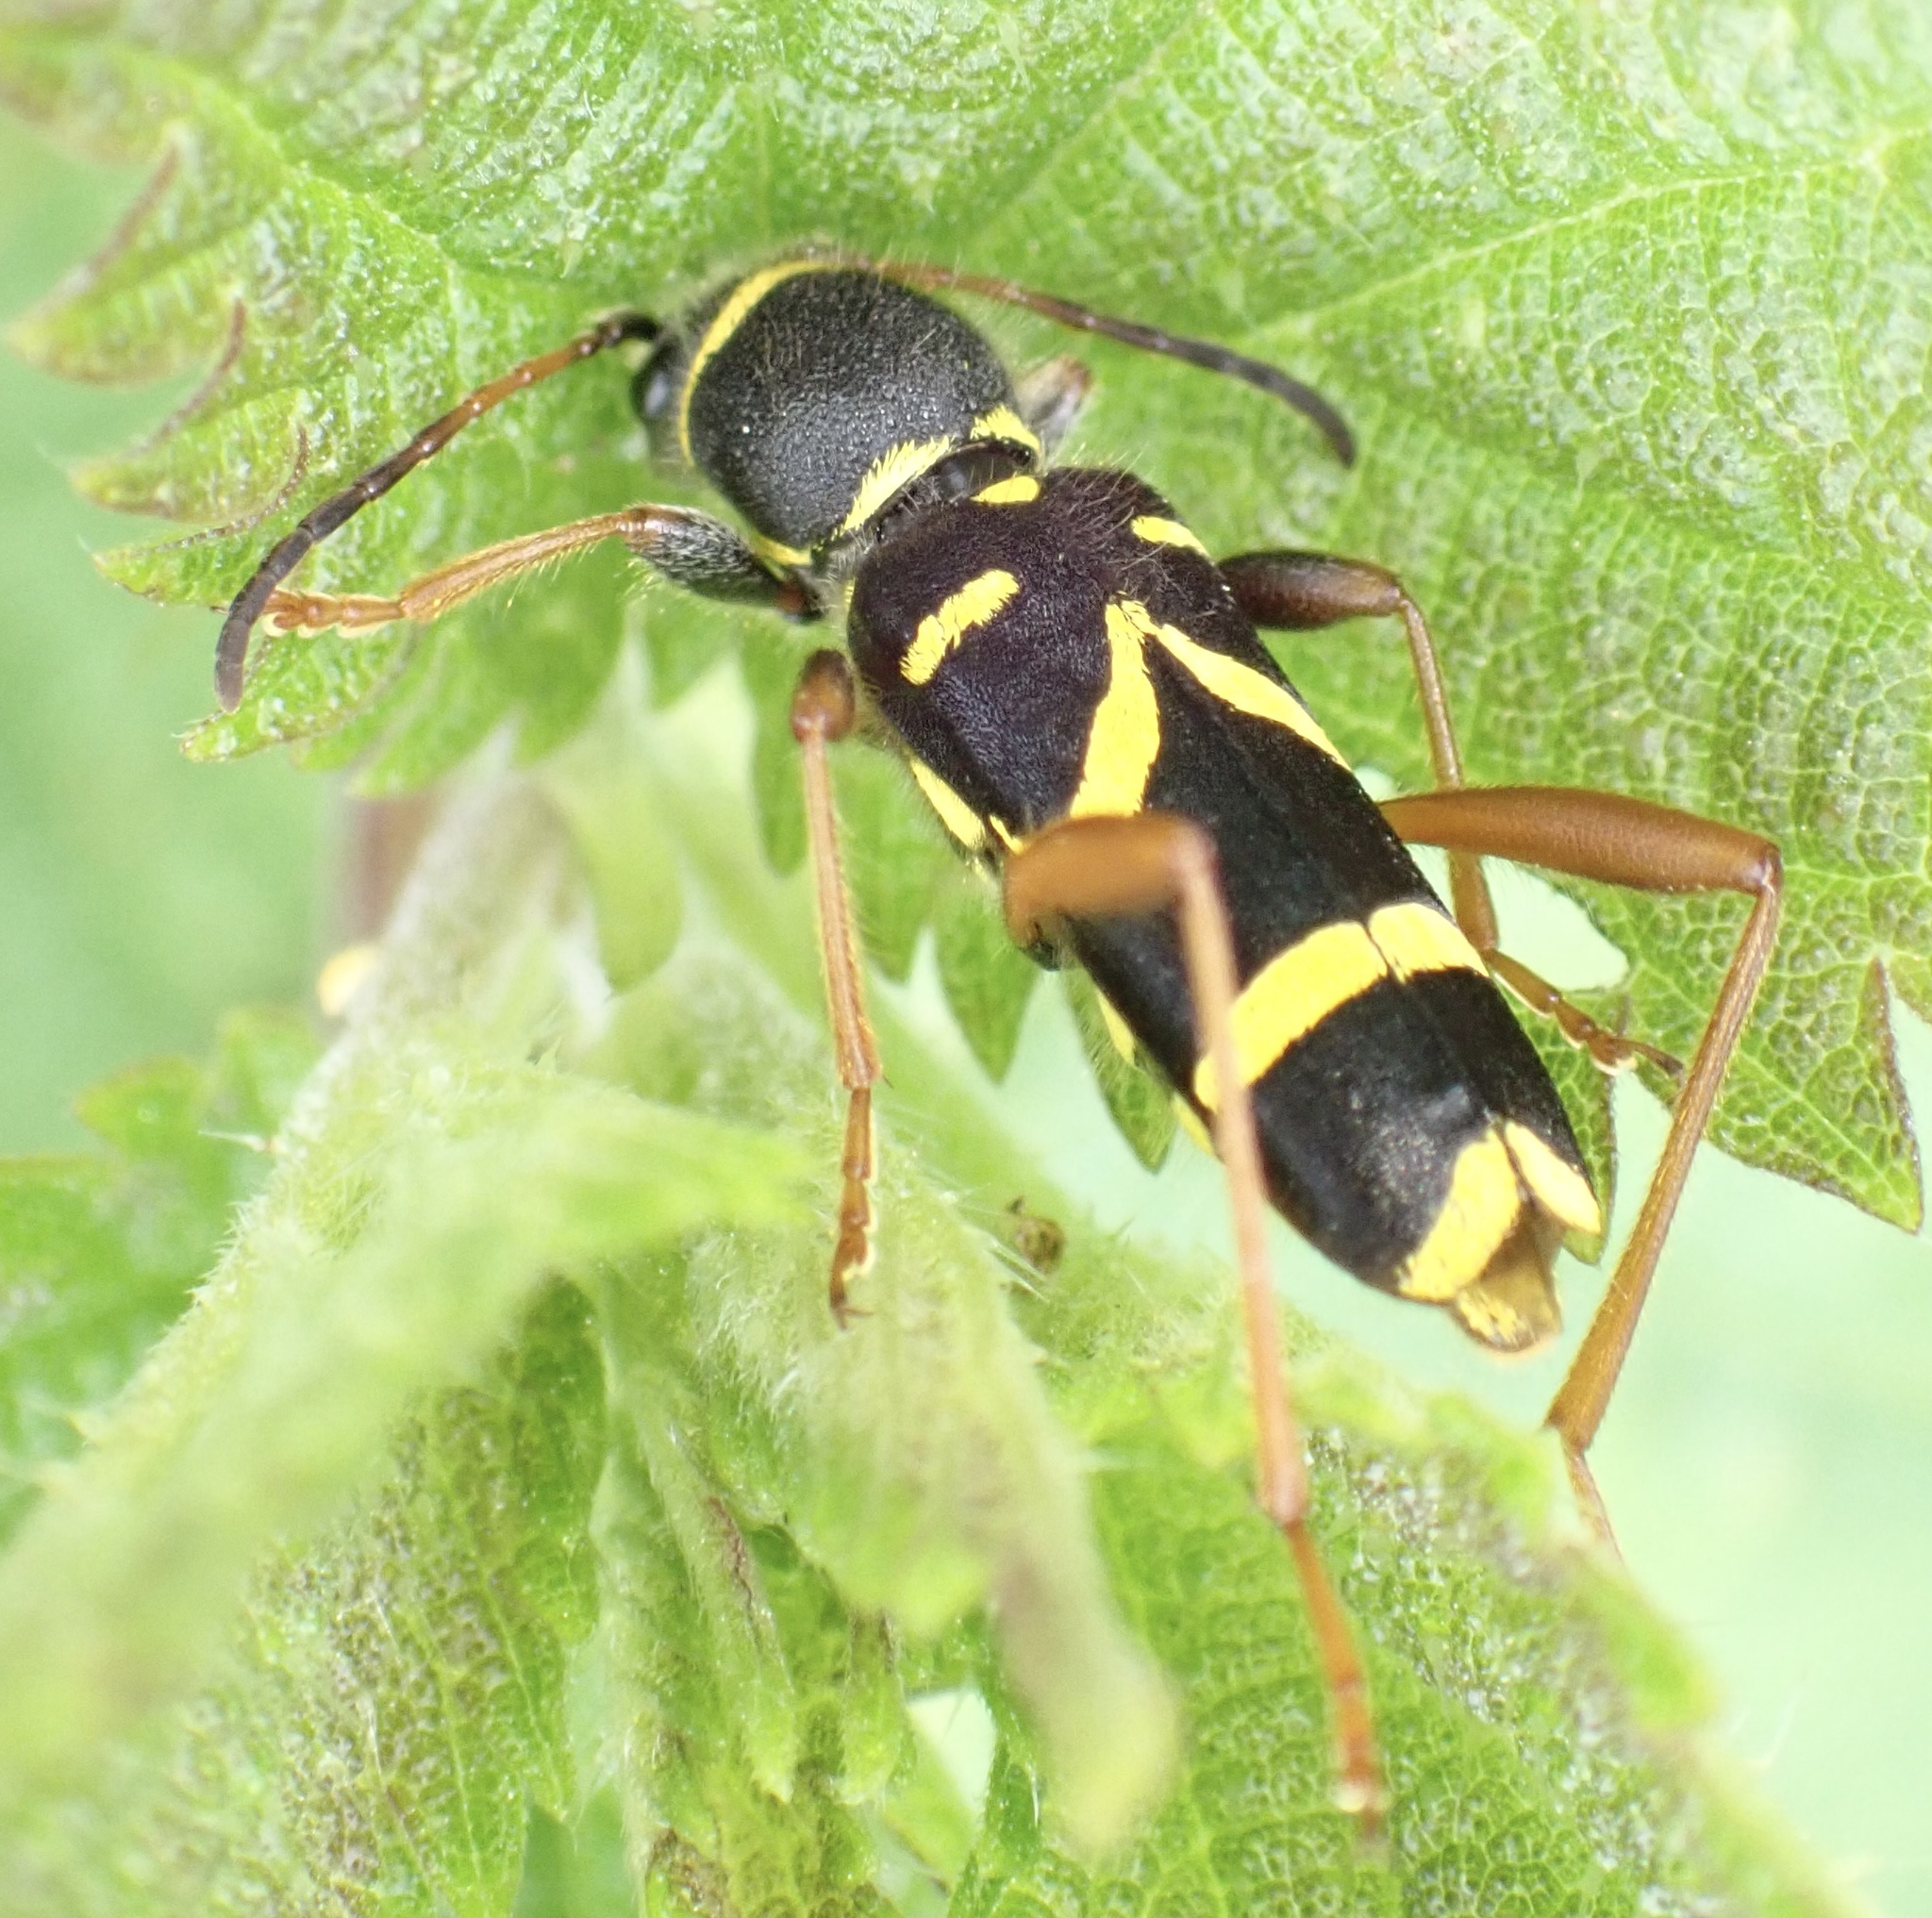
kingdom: Animalia
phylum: Arthropoda
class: Insecta
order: Coleoptera
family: Cerambycidae
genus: Clytus
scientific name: Clytus arietis
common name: Wasp beetle
